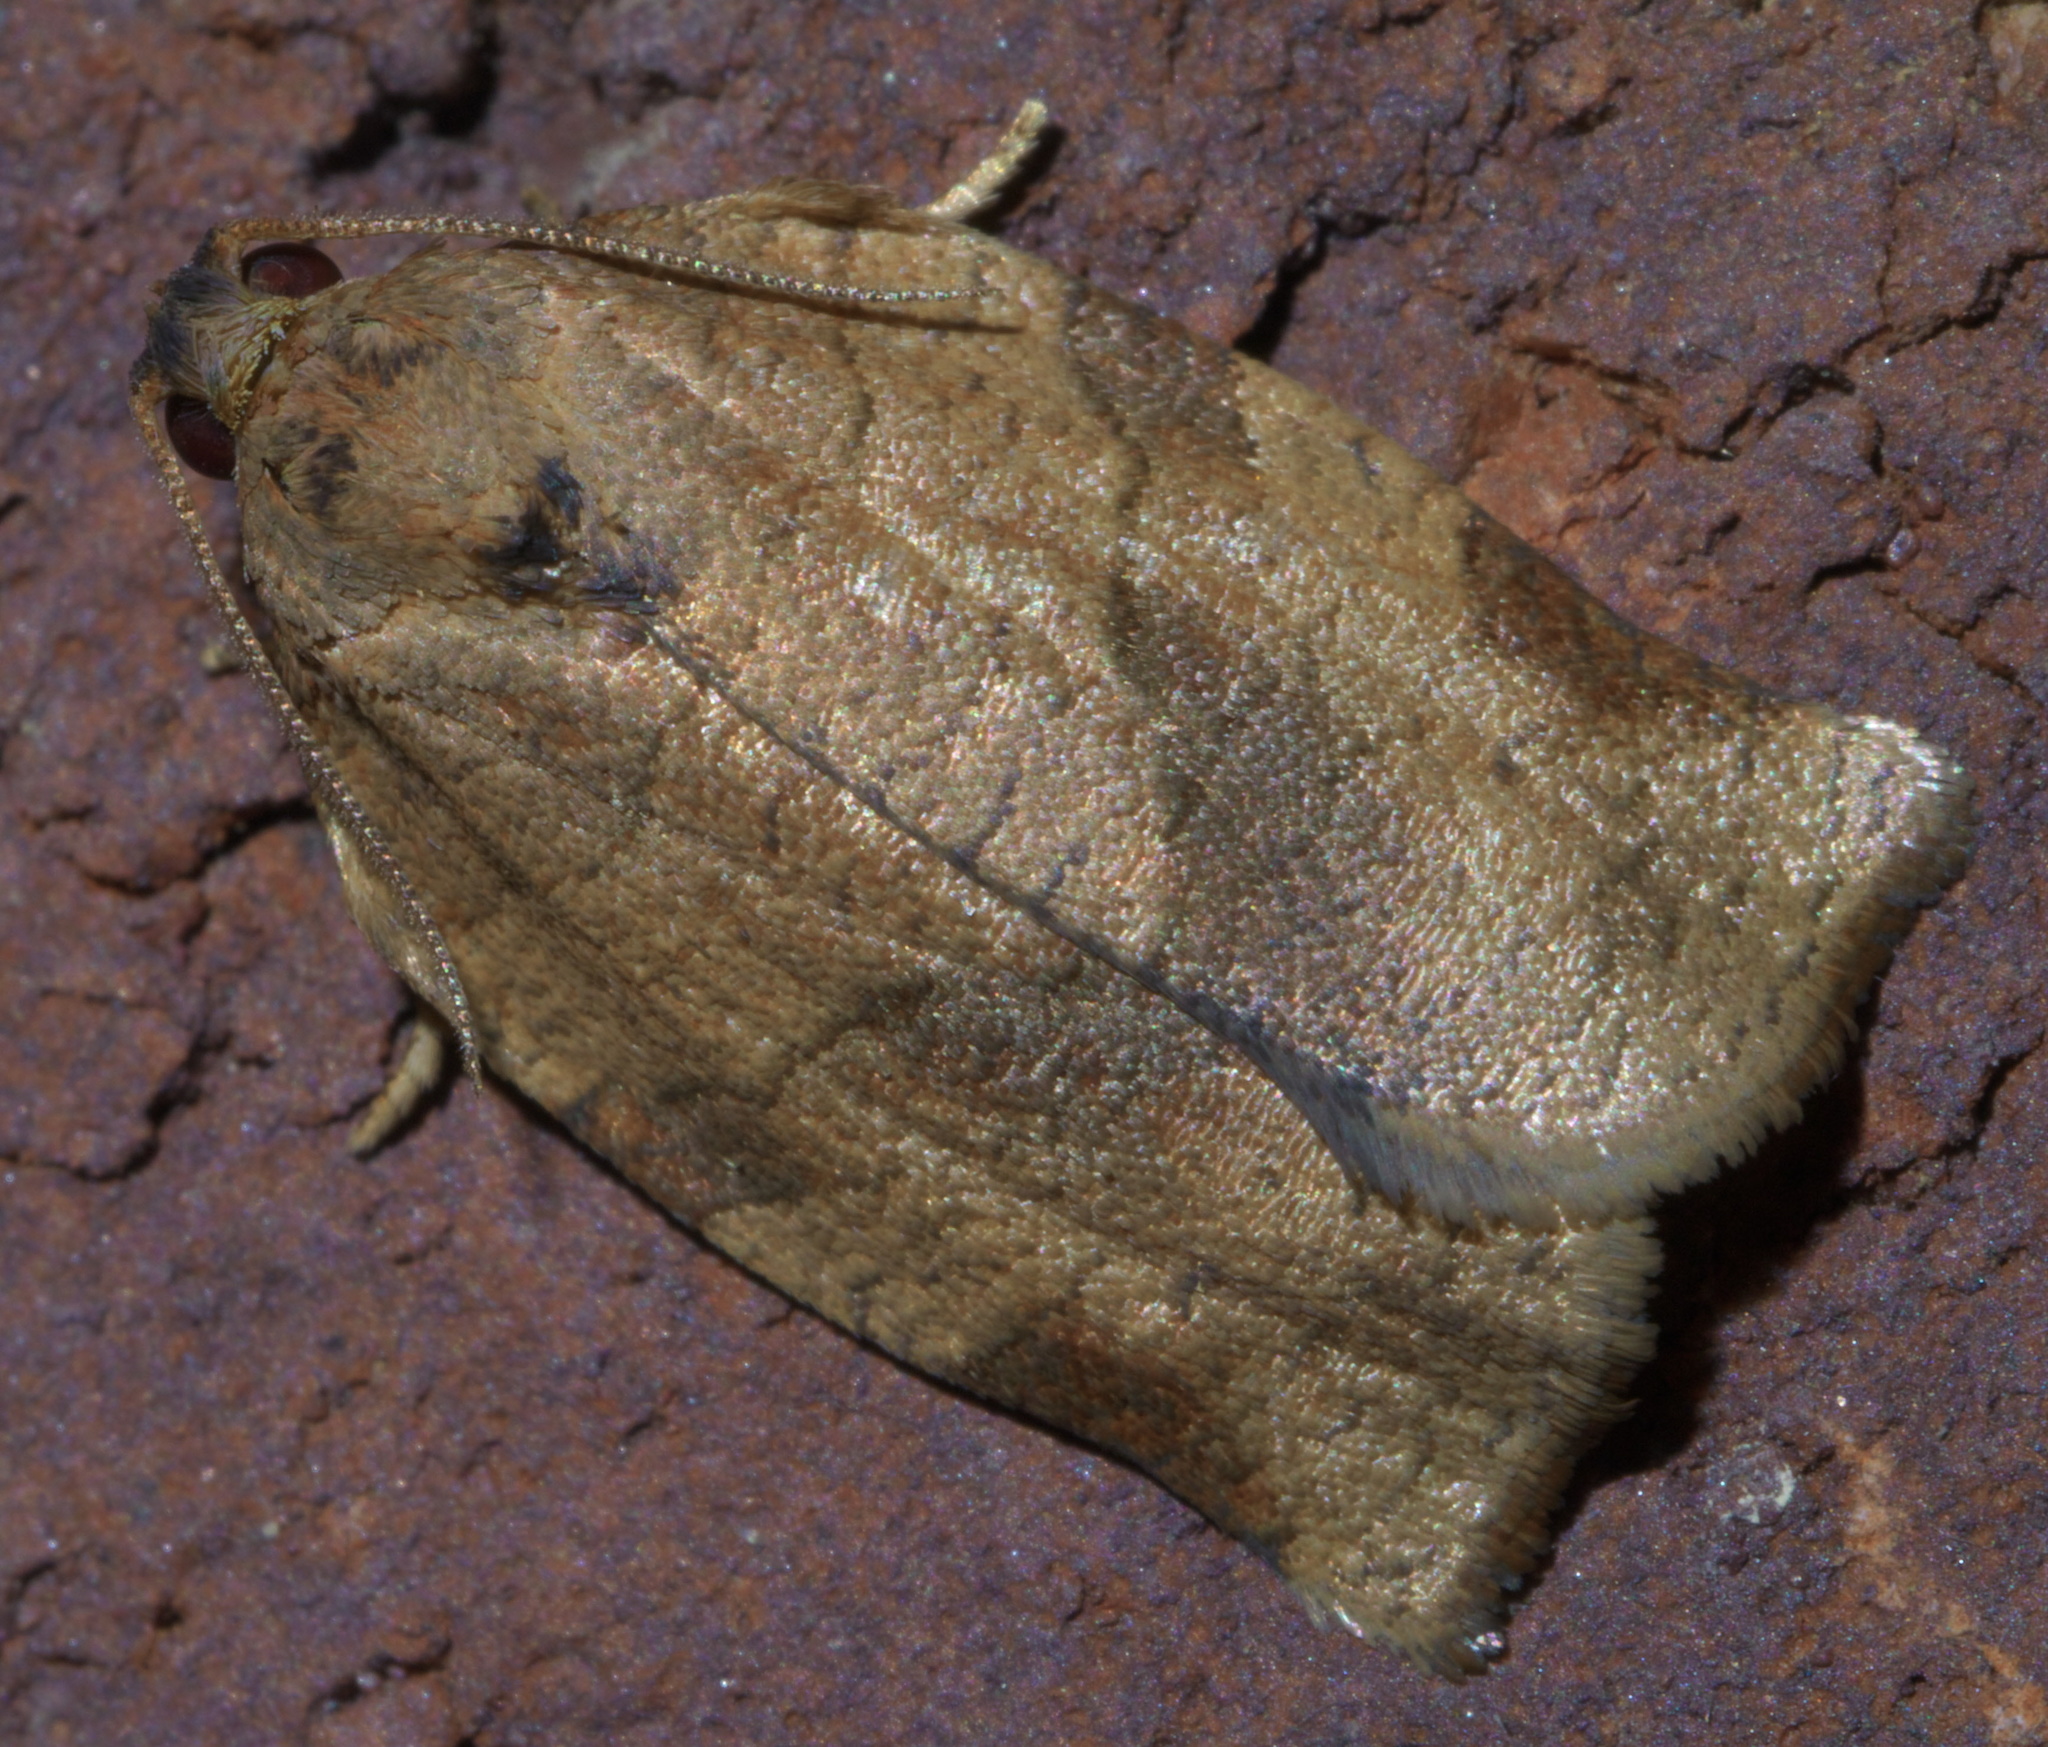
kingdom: Animalia
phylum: Arthropoda
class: Insecta
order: Lepidoptera
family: Tortricidae
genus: Choristoneura
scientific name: Choristoneura rosaceana
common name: Oblique-banded leafroller moth
